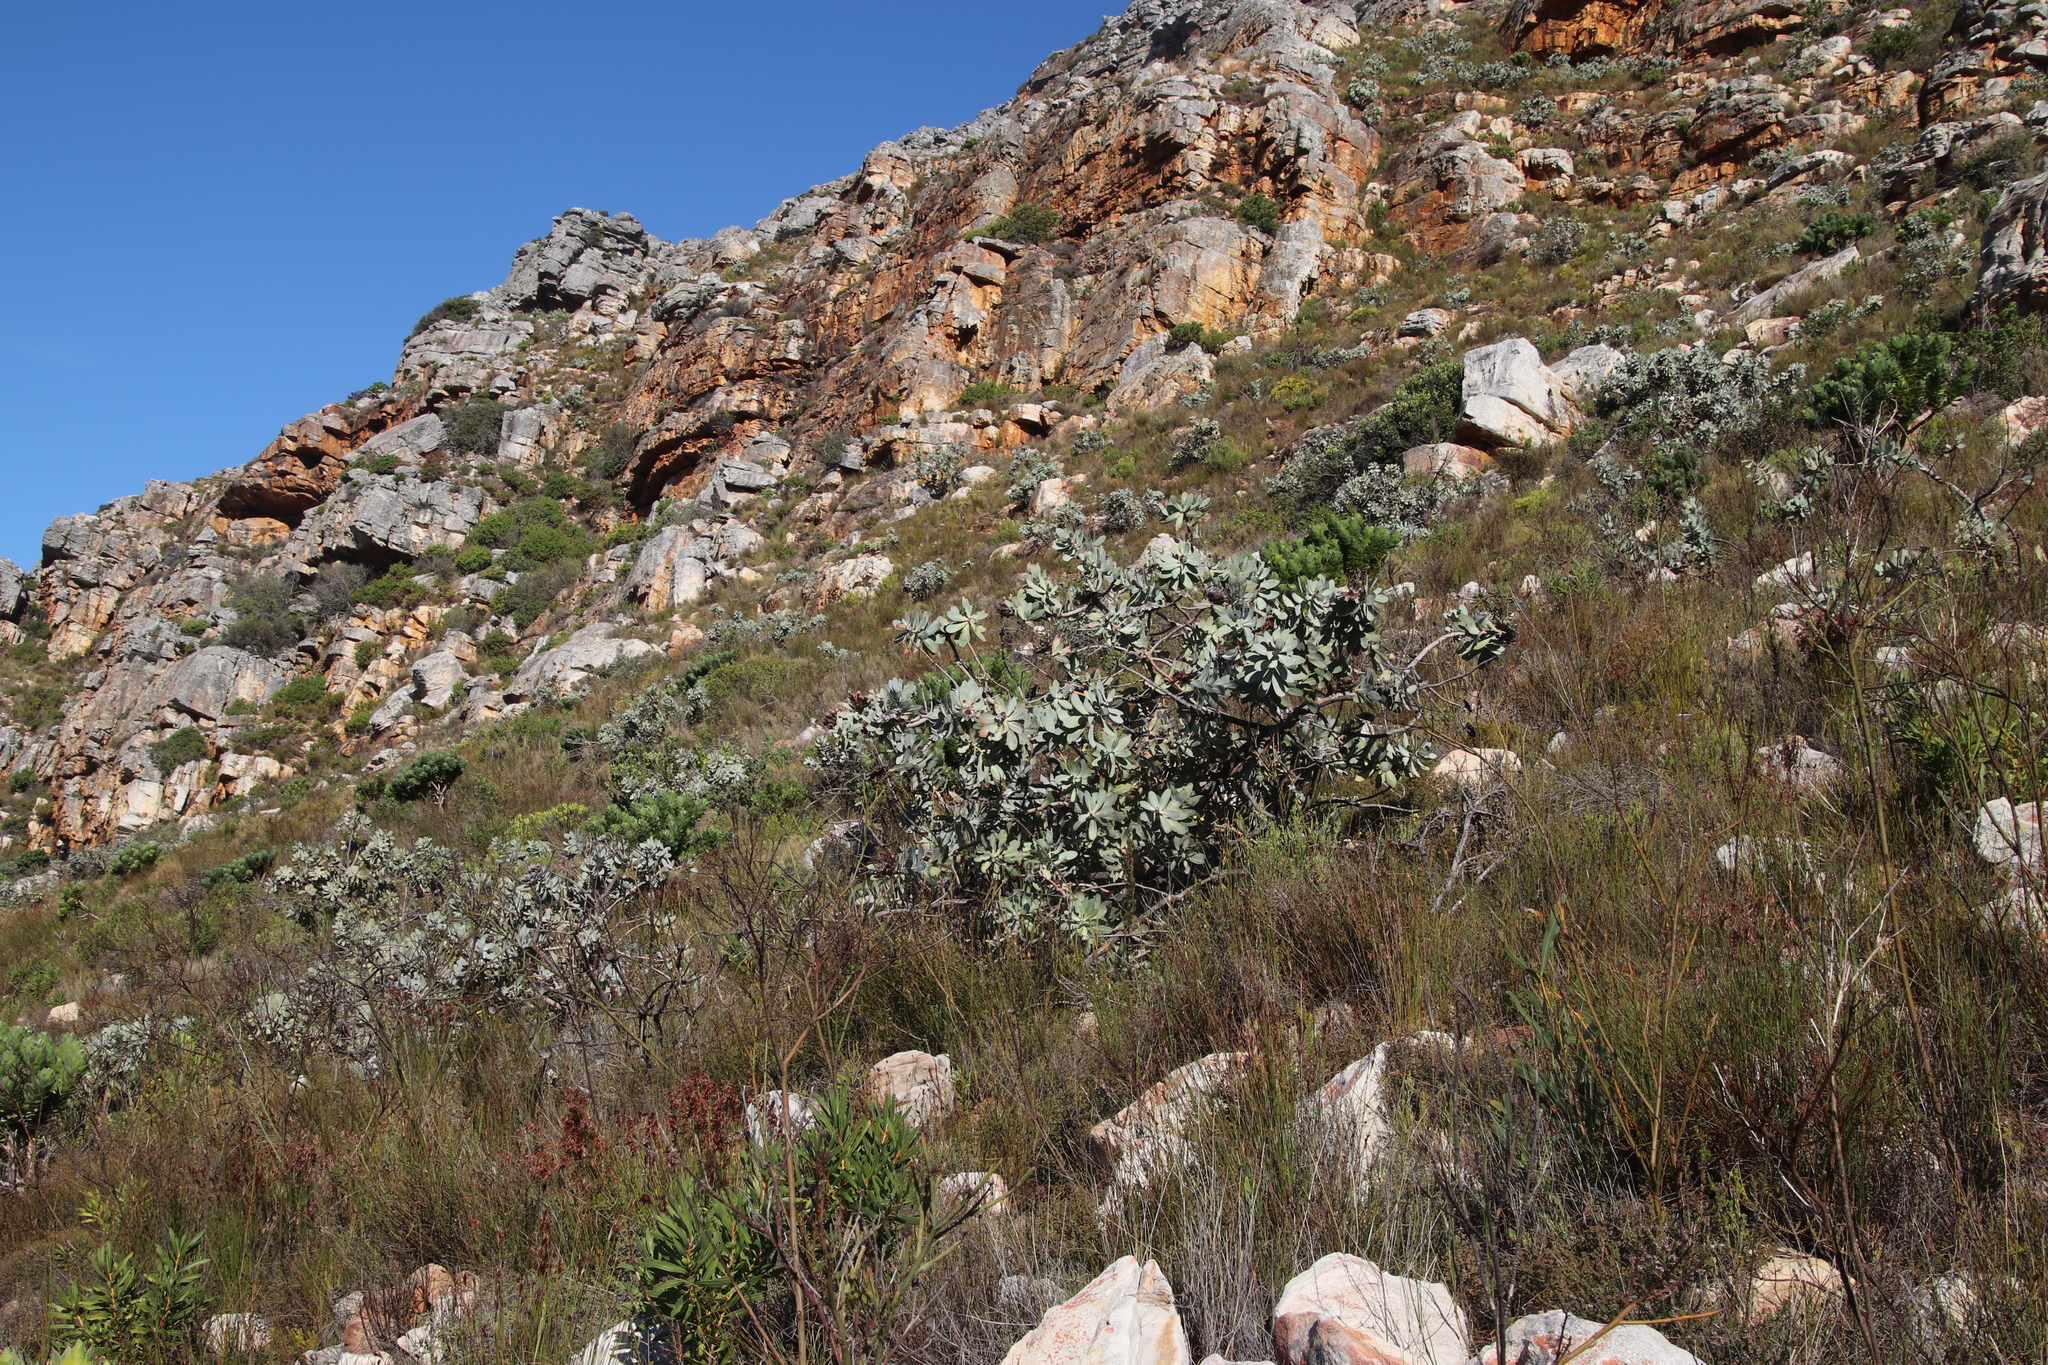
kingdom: Plantae
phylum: Tracheophyta
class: Magnoliopsida
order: Proteales
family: Proteaceae
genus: Protea
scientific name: Protea nitida
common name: Tree protea
